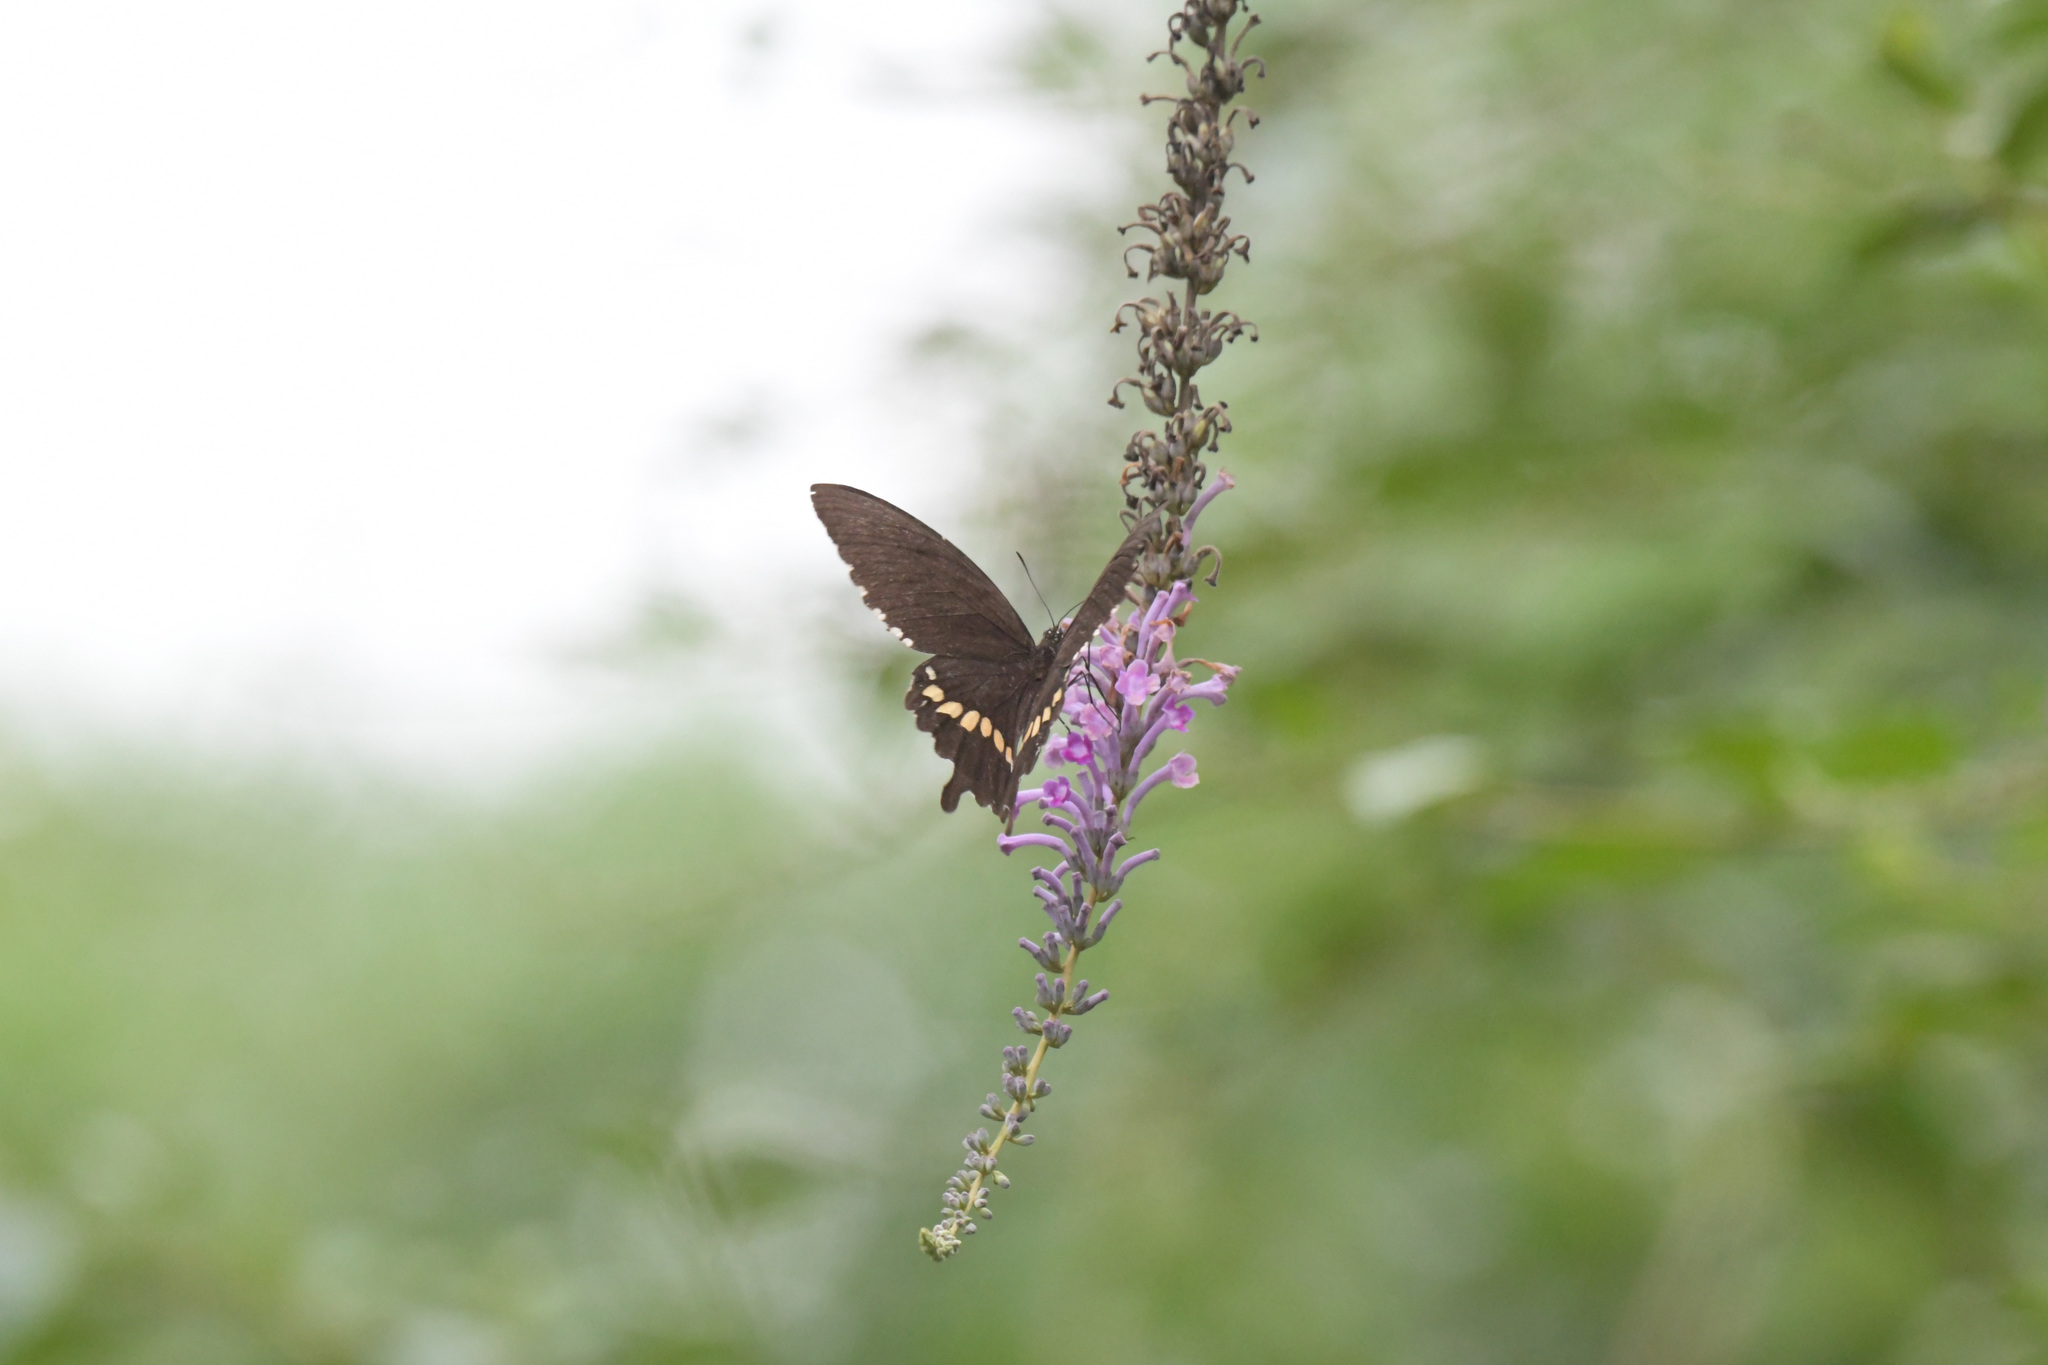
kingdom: Animalia
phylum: Arthropoda
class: Insecta
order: Lepidoptera
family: Papilionidae
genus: Papilio
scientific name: Papilio polytes
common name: Common mormon
